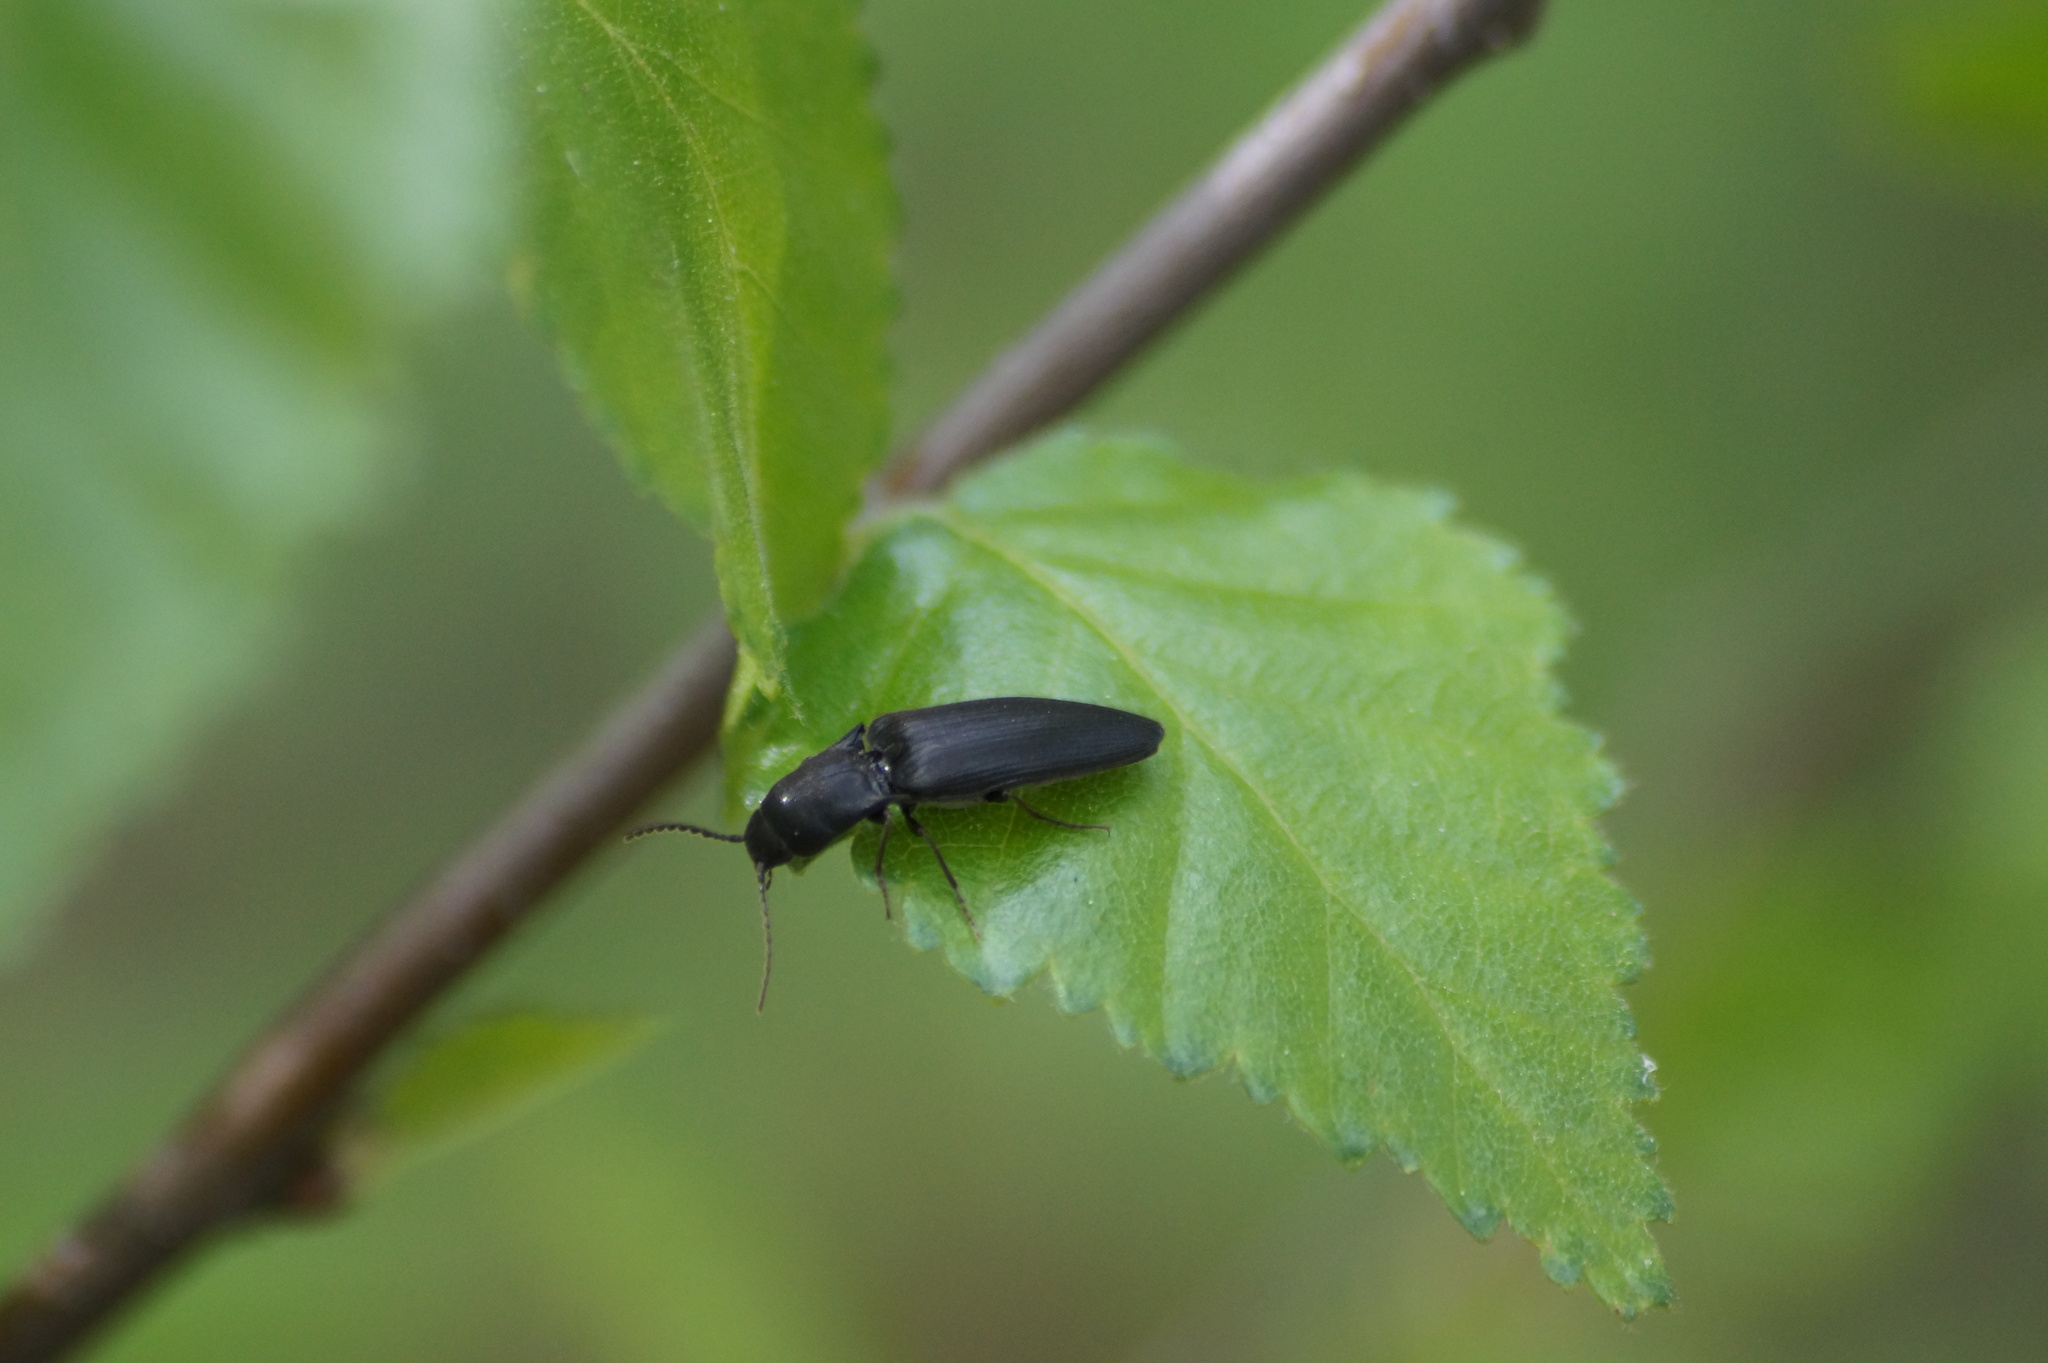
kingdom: Animalia
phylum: Arthropoda
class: Insecta
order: Coleoptera
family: Elateridae
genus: Ectinus
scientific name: Ectinus aterrimus
